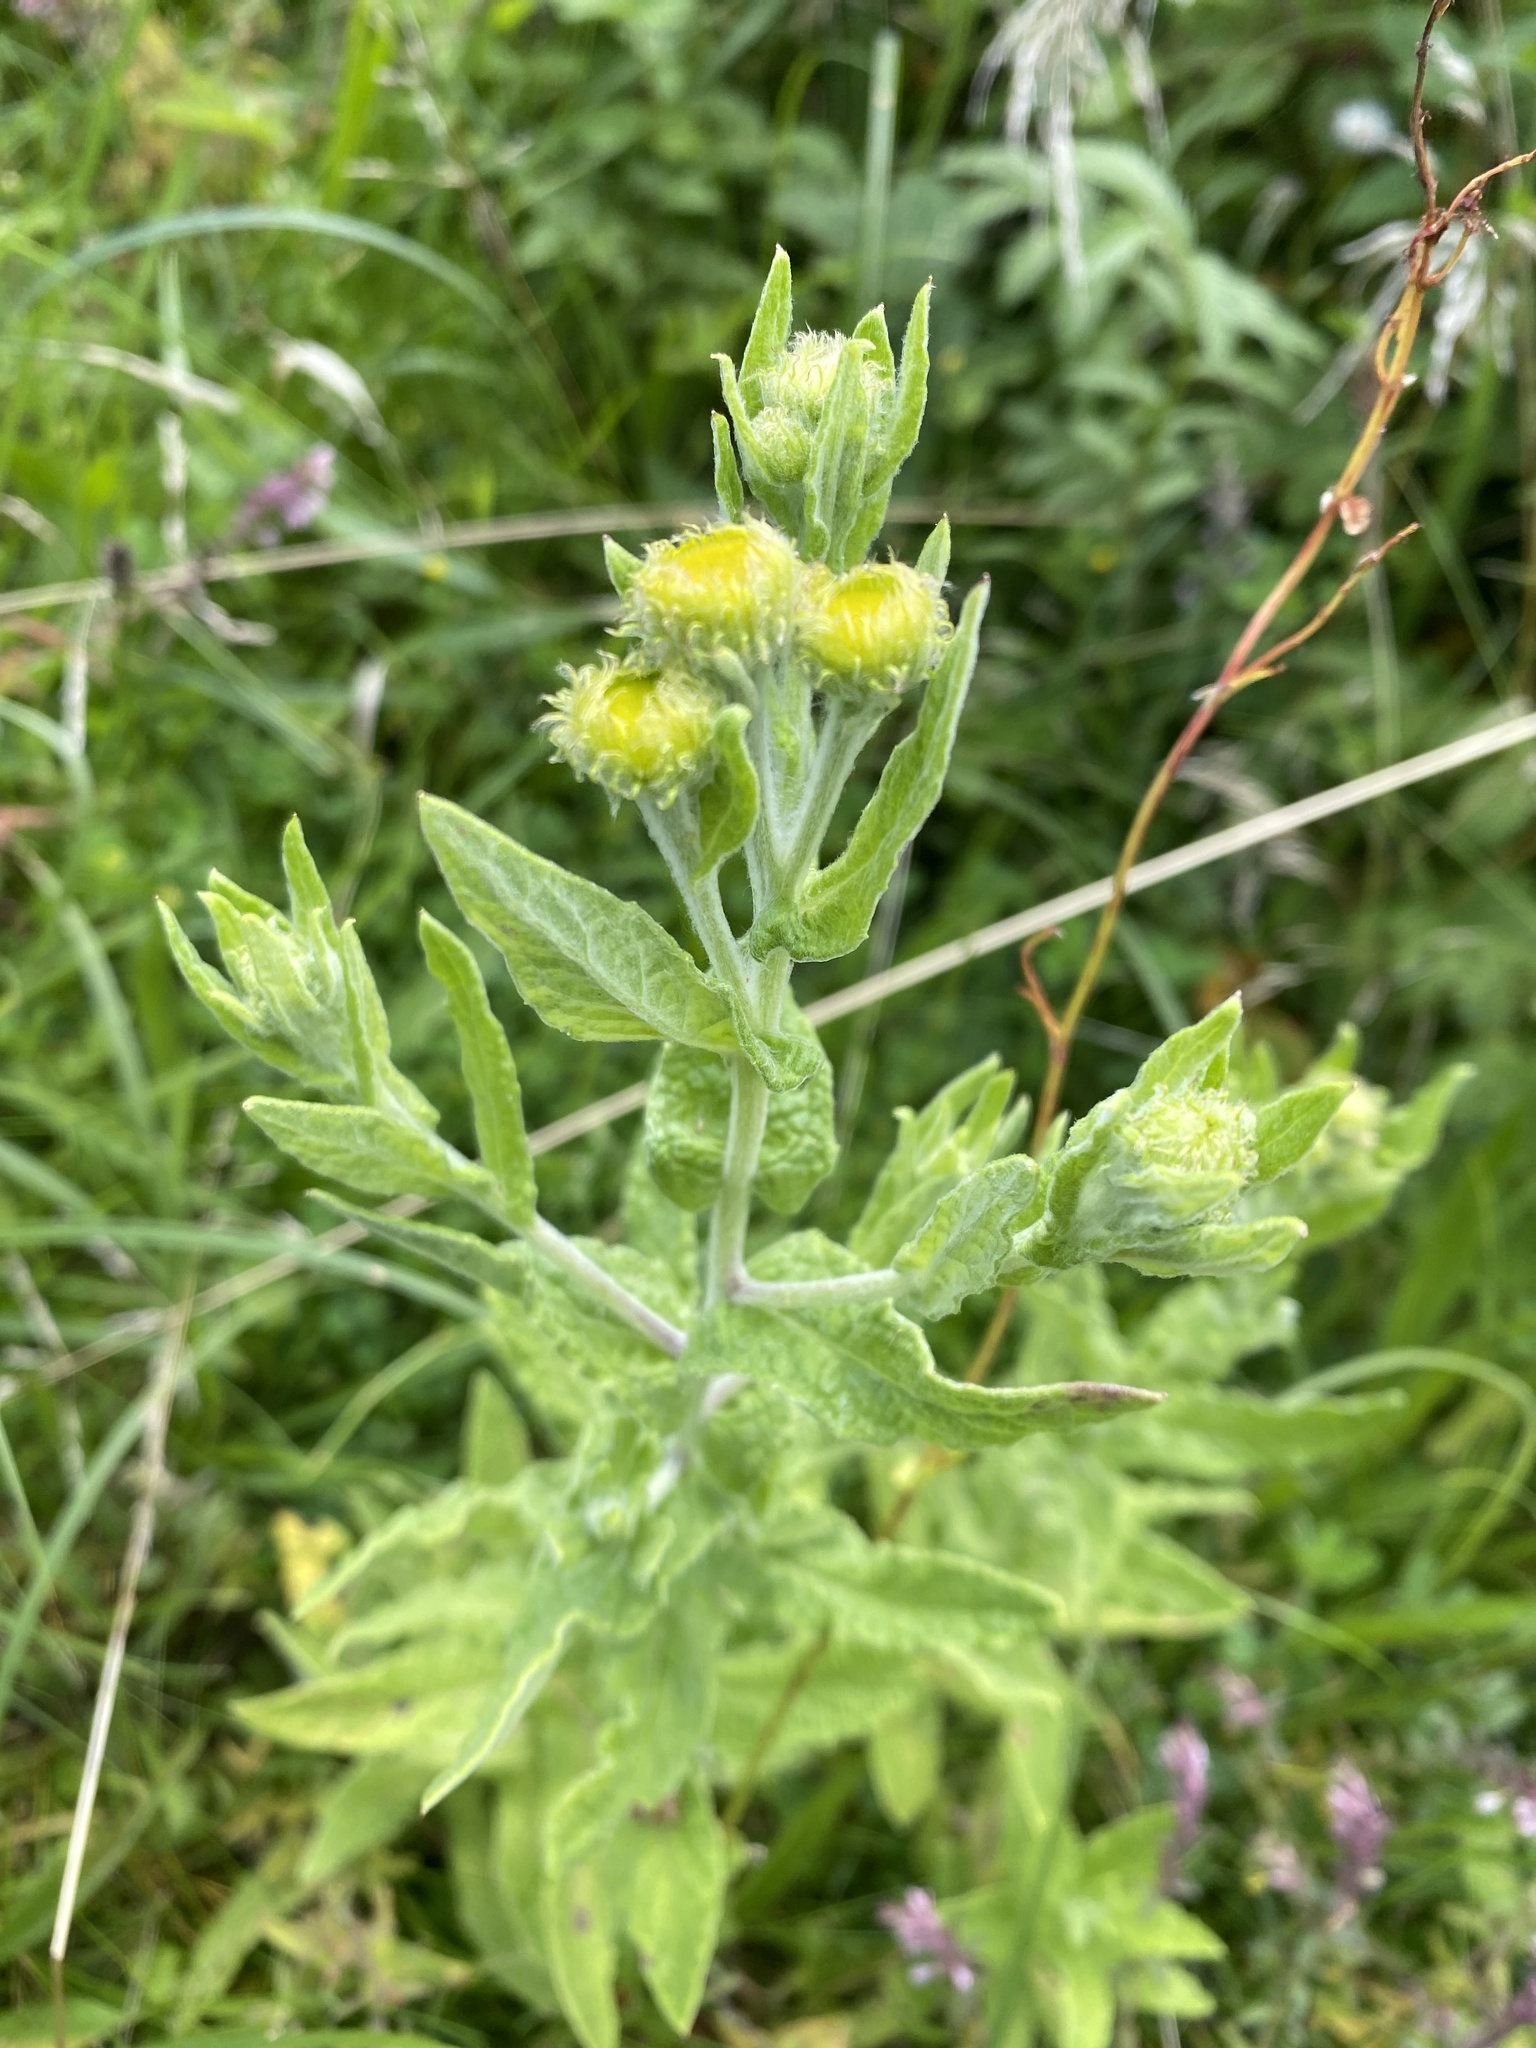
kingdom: Plantae
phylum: Tracheophyta
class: Magnoliopsida
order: Asterales
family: Asteraceae
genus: Pulicaria
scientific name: Pulicaria dysenterica
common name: Common fleabane
